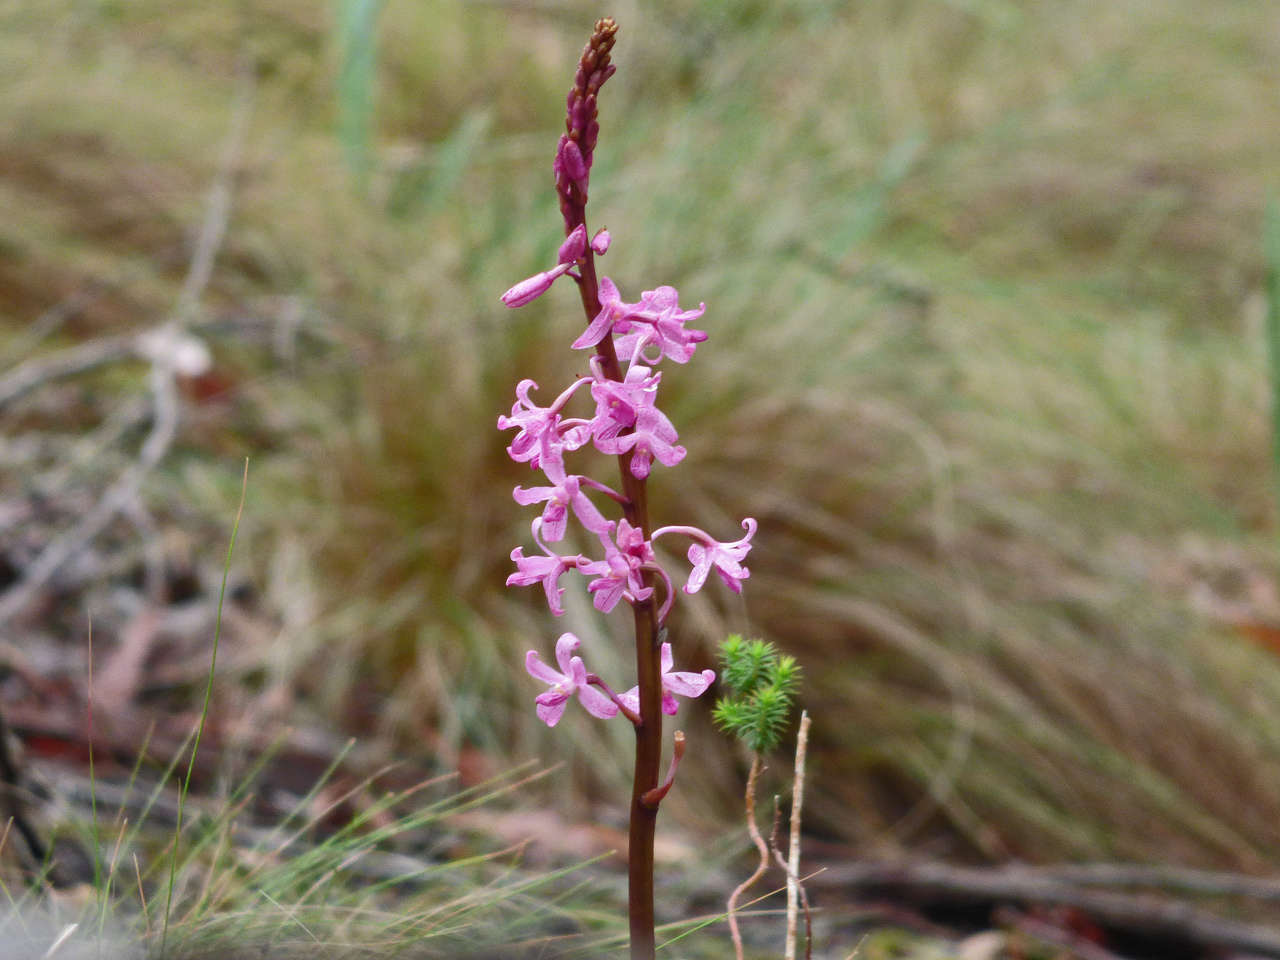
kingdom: Plantae
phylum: Tracheophyta
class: Liliopsida
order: Asparagales
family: Orchidaceae
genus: Dipodium
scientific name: Dipodium roseum
